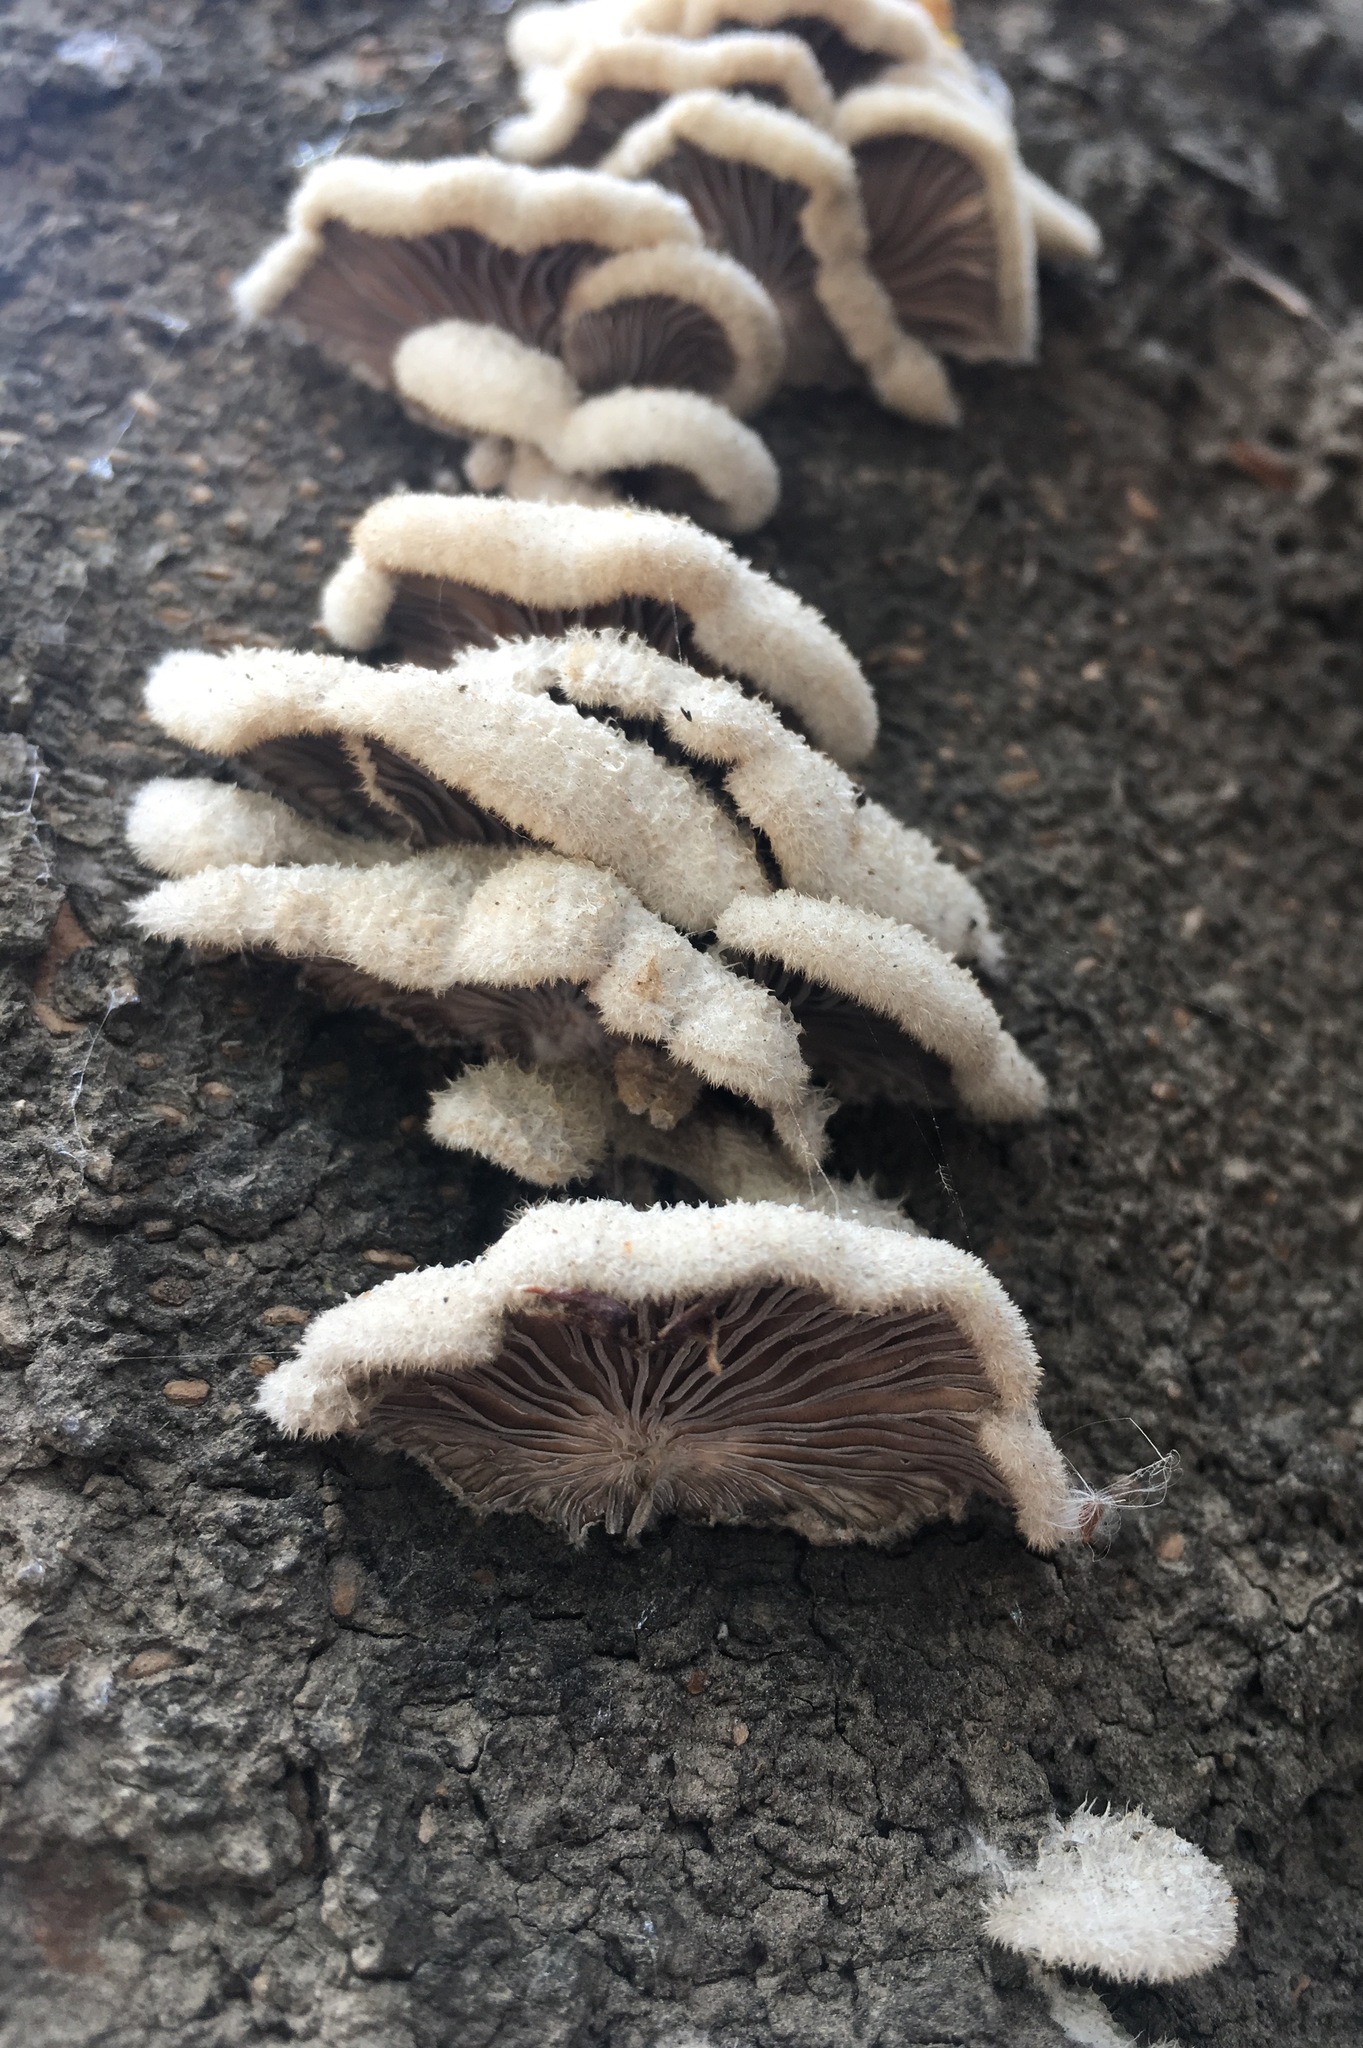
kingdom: Fungi
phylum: Basidiomycota
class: Agaricomycetes
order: Agaricales
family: Schizophyllaceae
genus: Schizophyllum
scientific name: Schizophyllum commune
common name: Common porecrust
